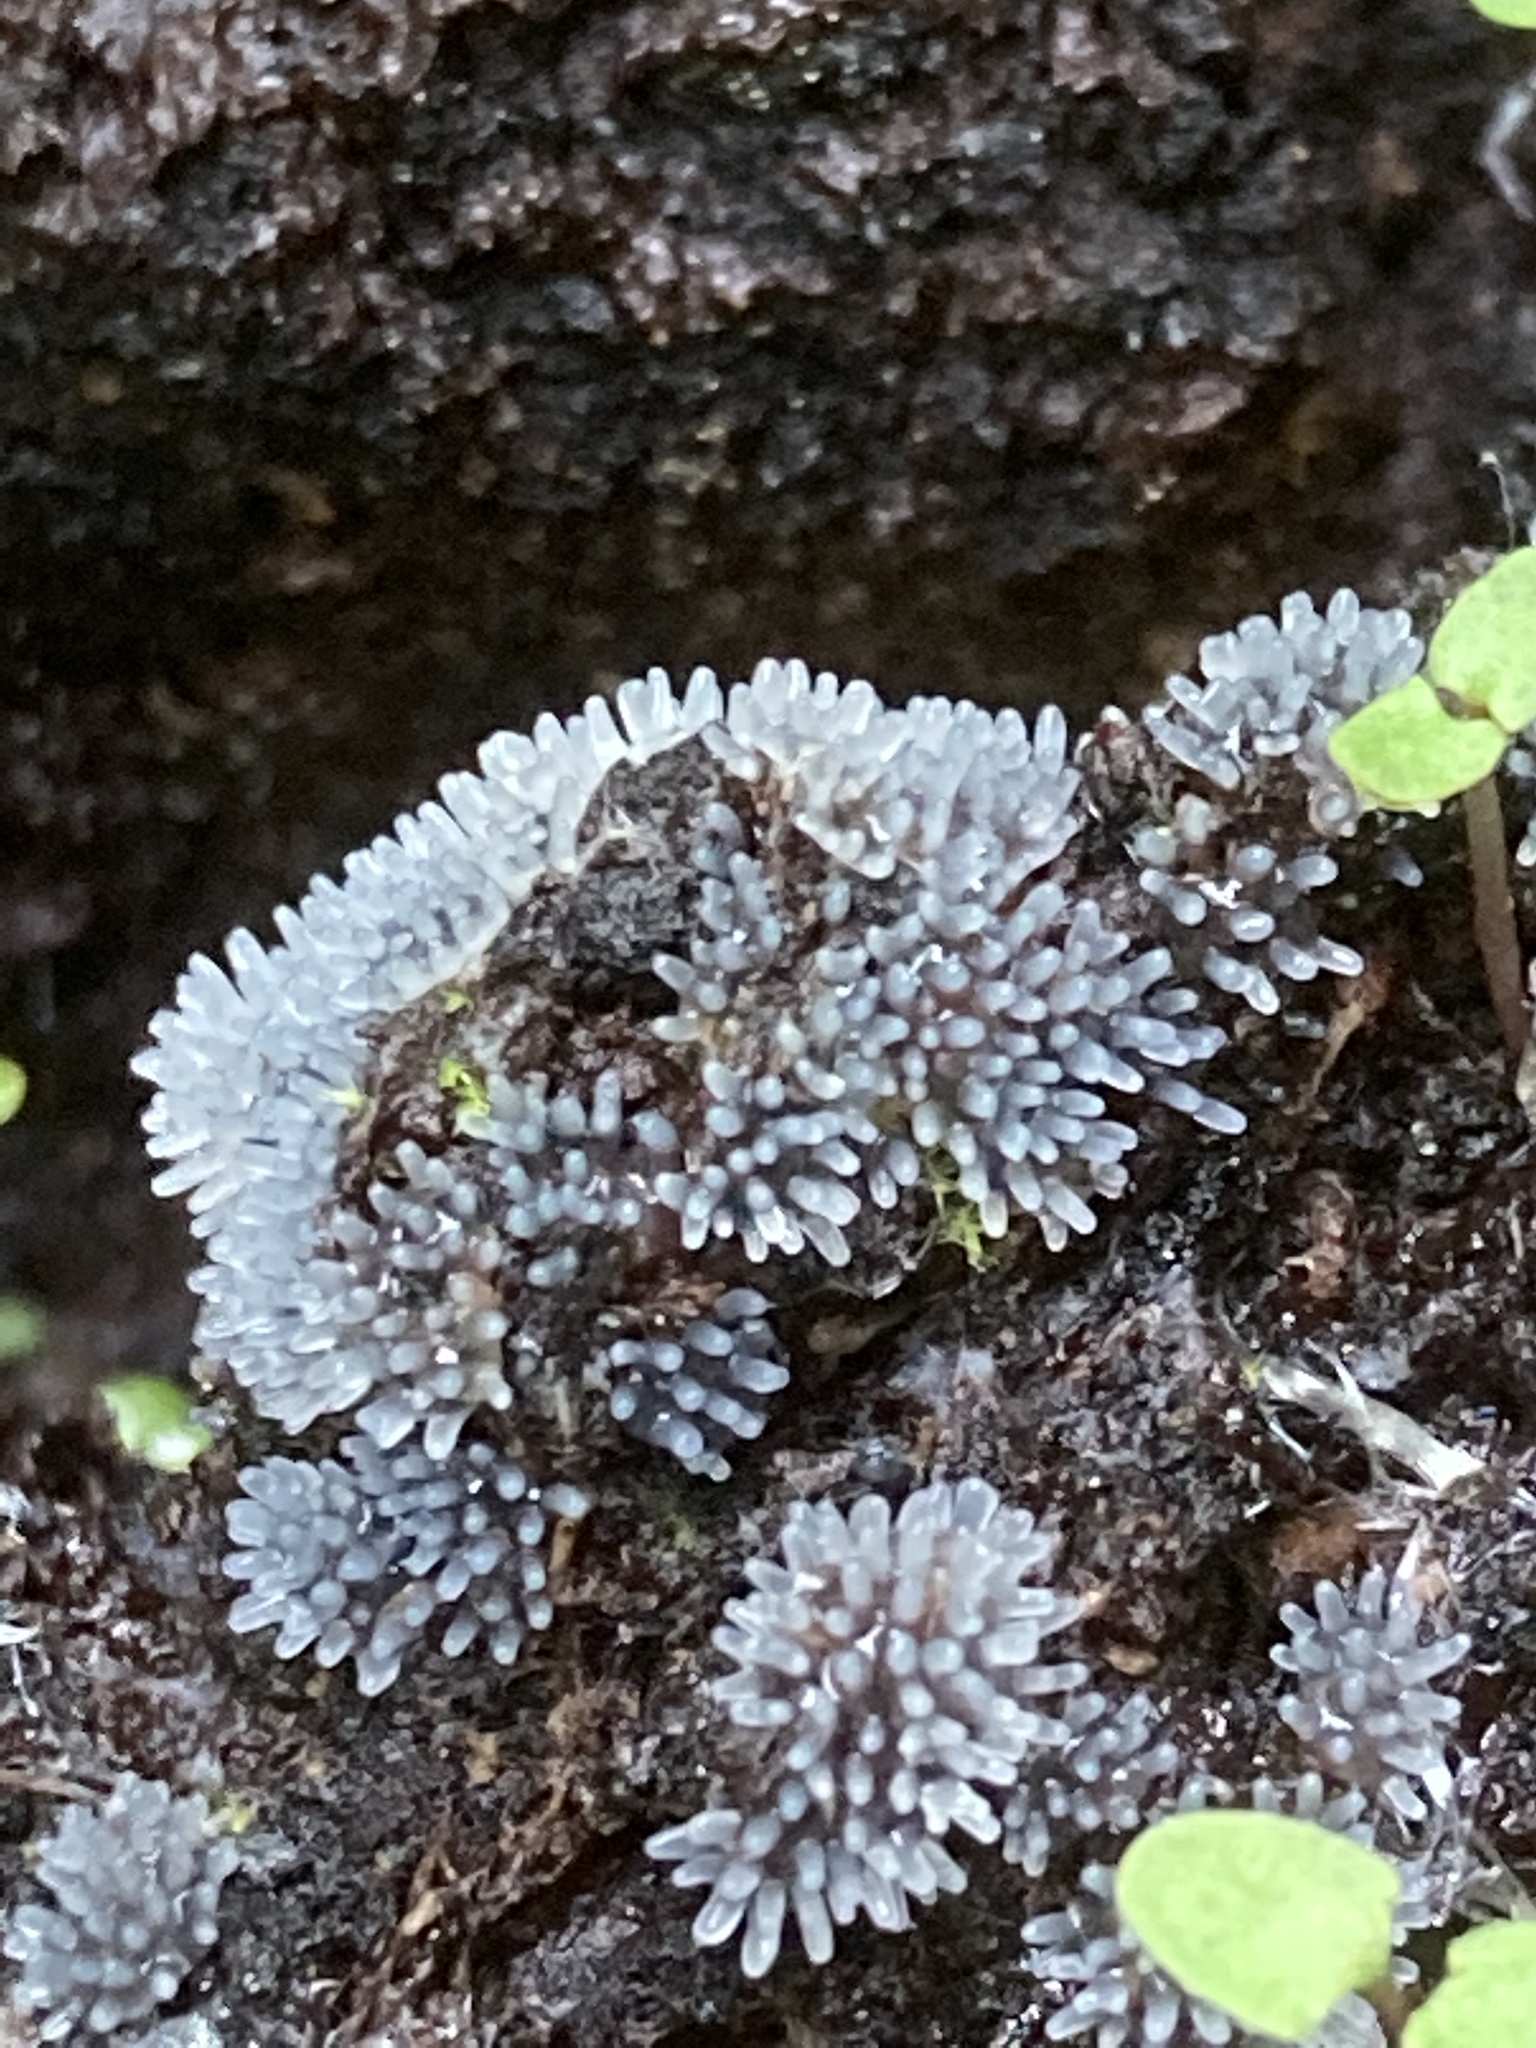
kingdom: Protozoa
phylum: Mycetozoa
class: Protosteliomycetes
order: Ceratiomyxales
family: Ceratiomyxaceae
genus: Ceratiomyxa
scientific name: Ceratiomyxa fruticulosa
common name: Honeycomb coral slime mold
